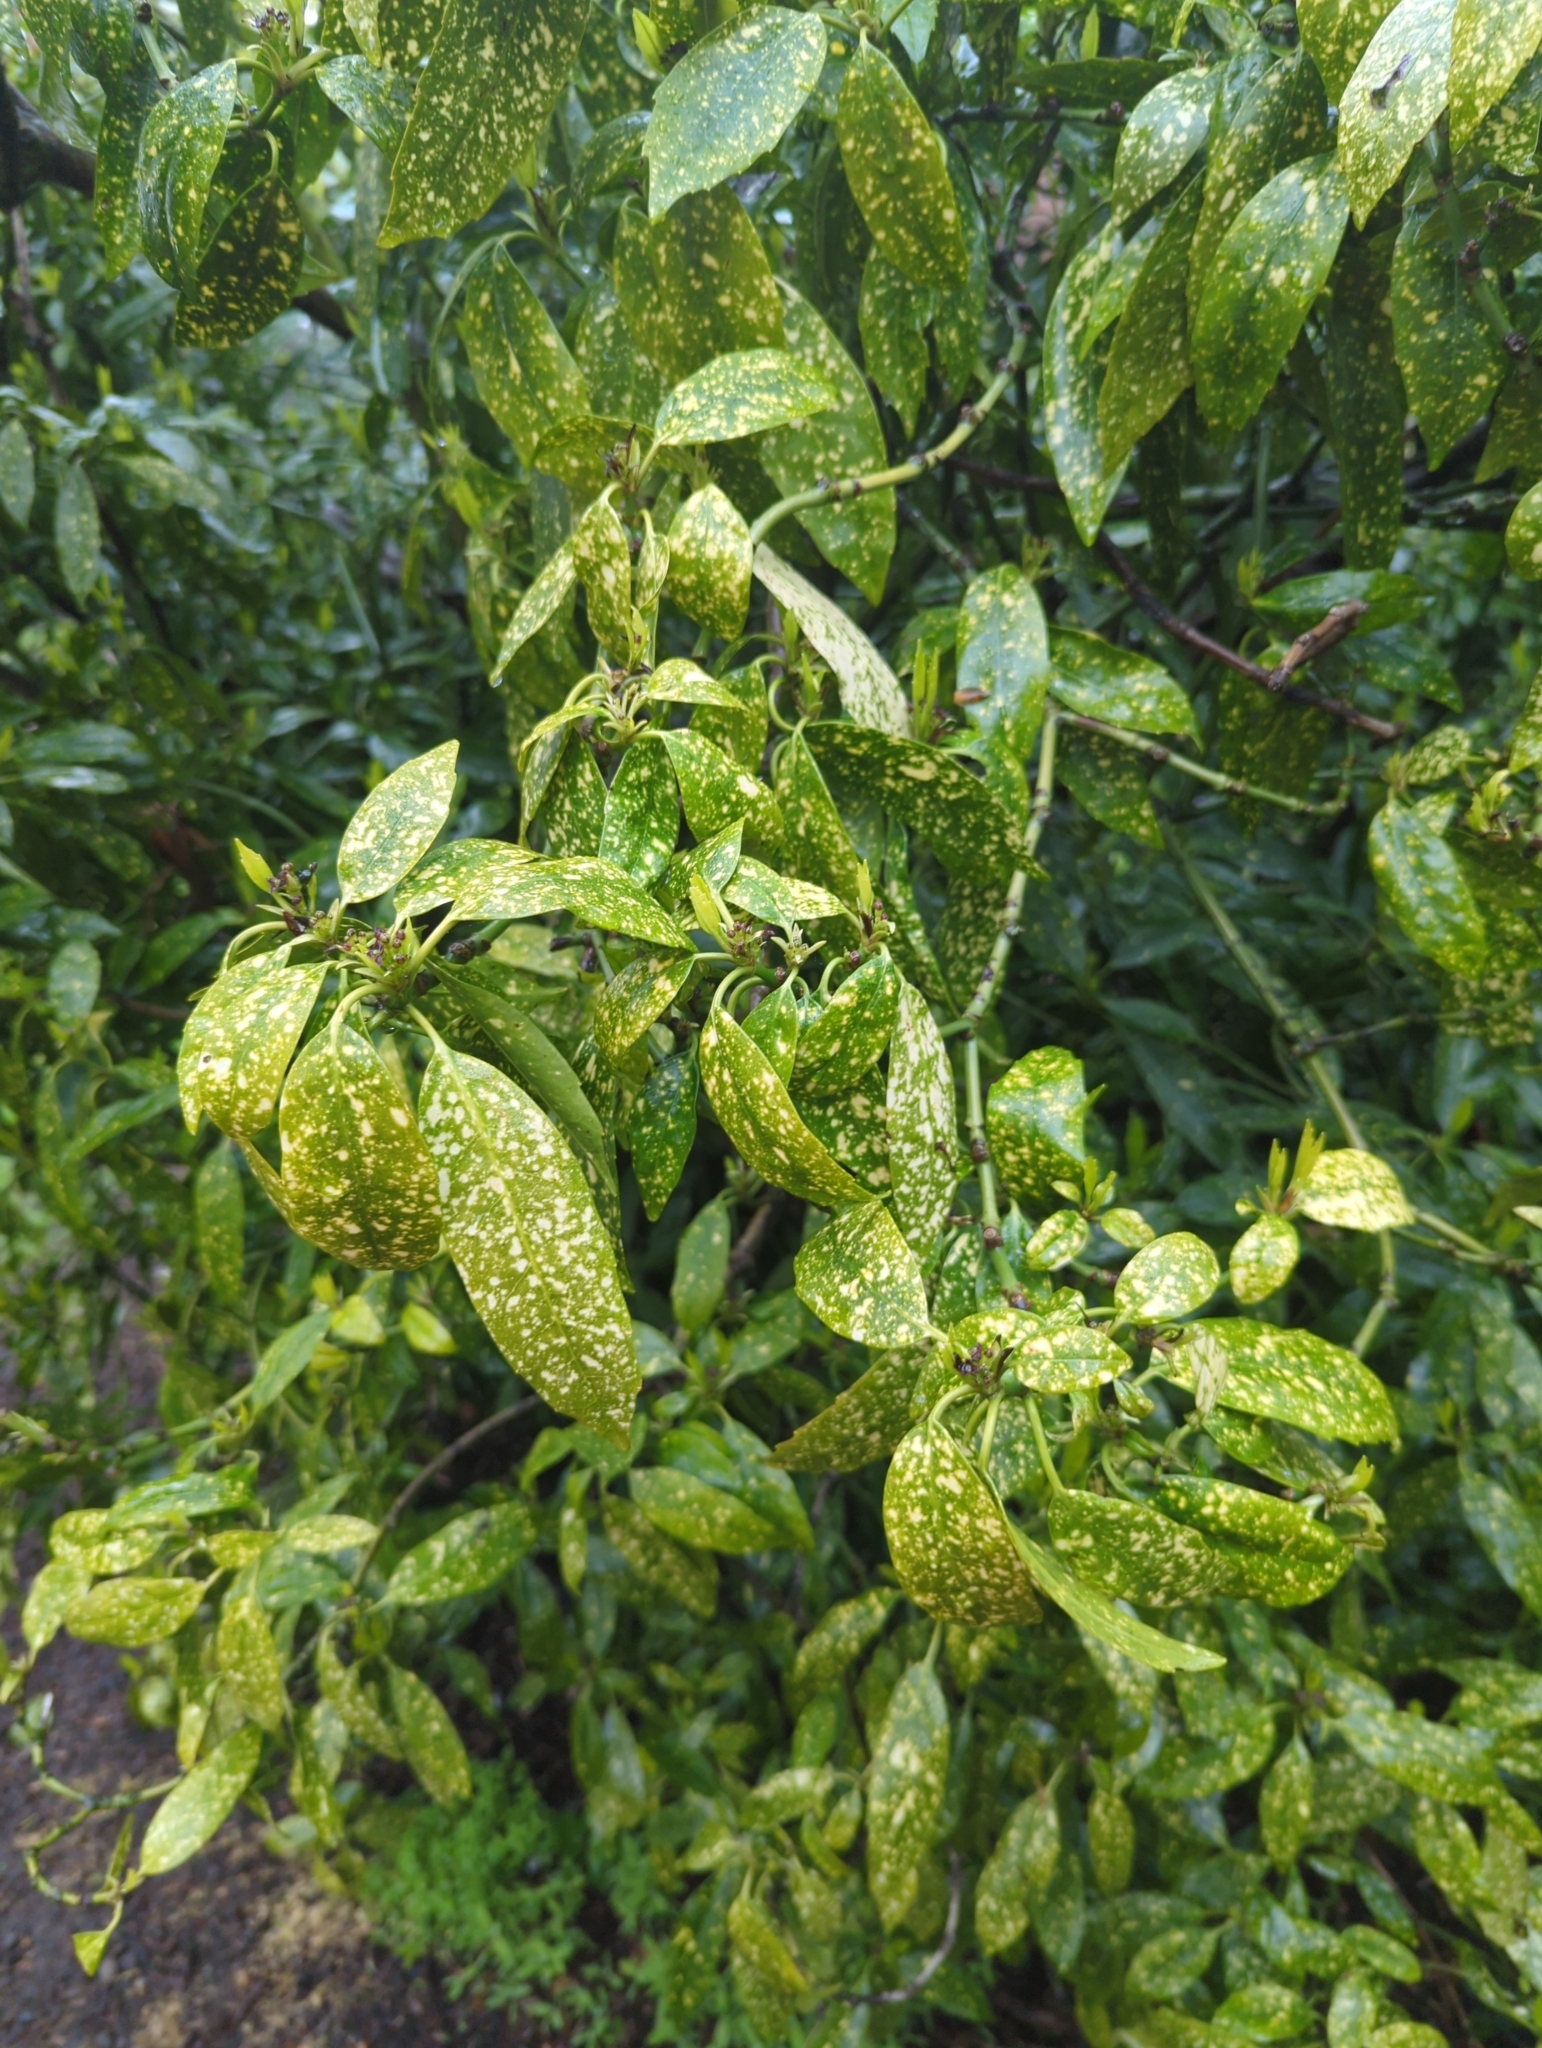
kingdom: Plantae
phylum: Tracheophyta
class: Magnoliopsida
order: Garryales
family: Garryaceae
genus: Aucuba
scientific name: Aucuba japonica
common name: Spotted-laurel
